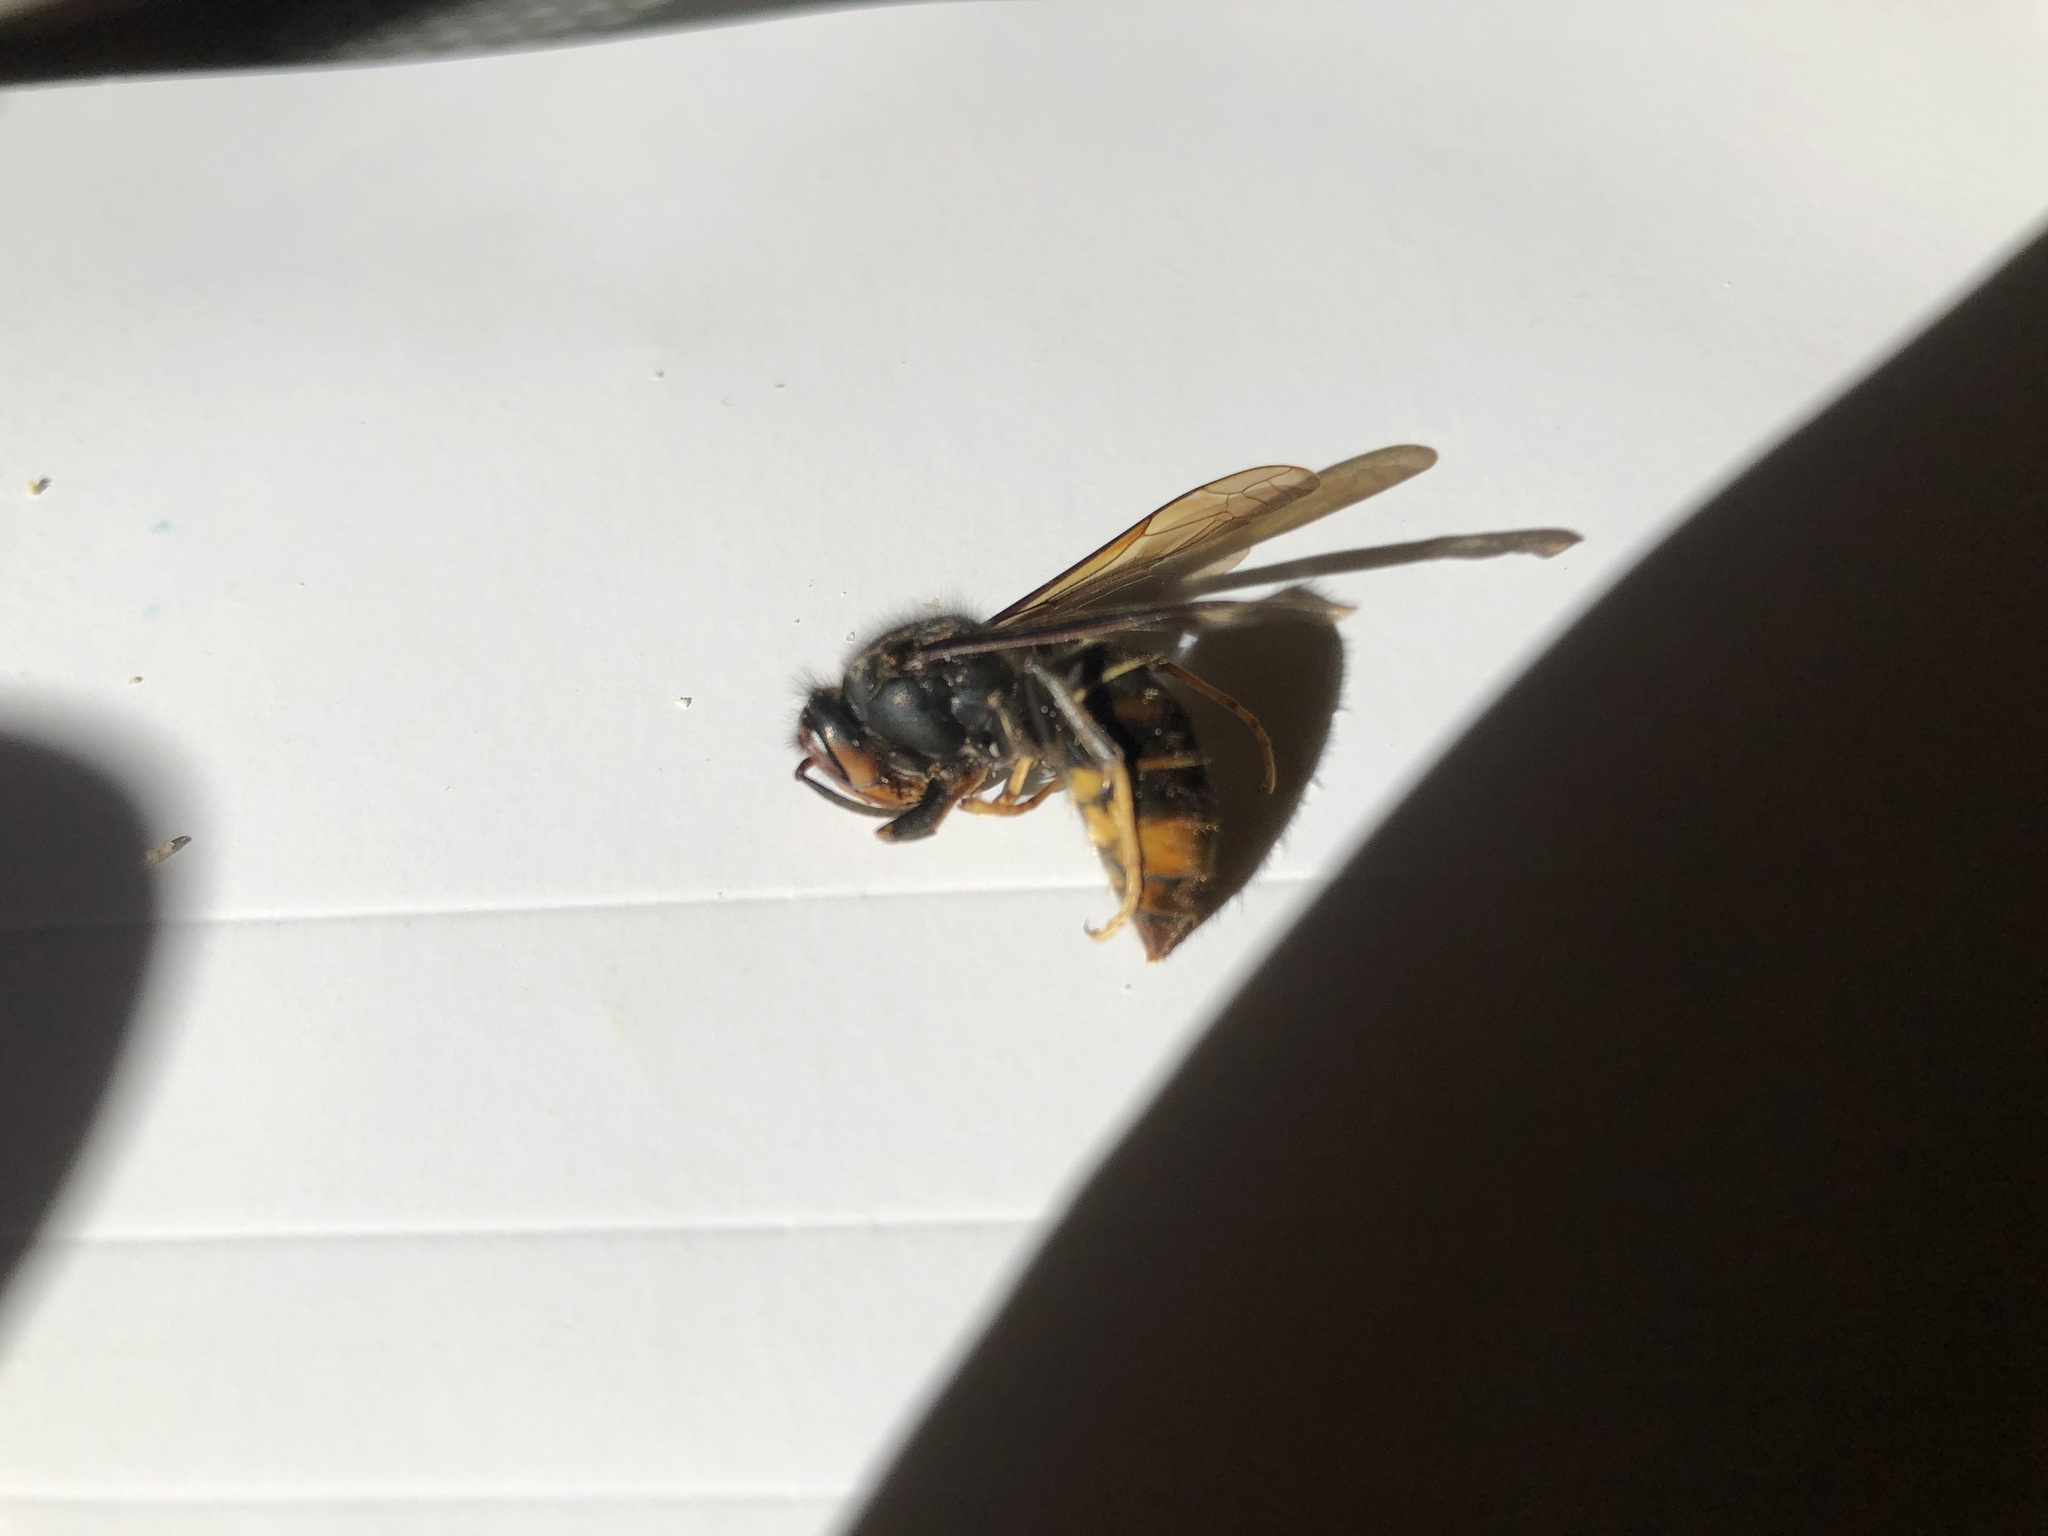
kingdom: Animalia
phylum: Arthropoda
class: Insecta
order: Hymenoptera
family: Vespidae
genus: Vespa
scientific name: Vespa velutina
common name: Asian hornet
